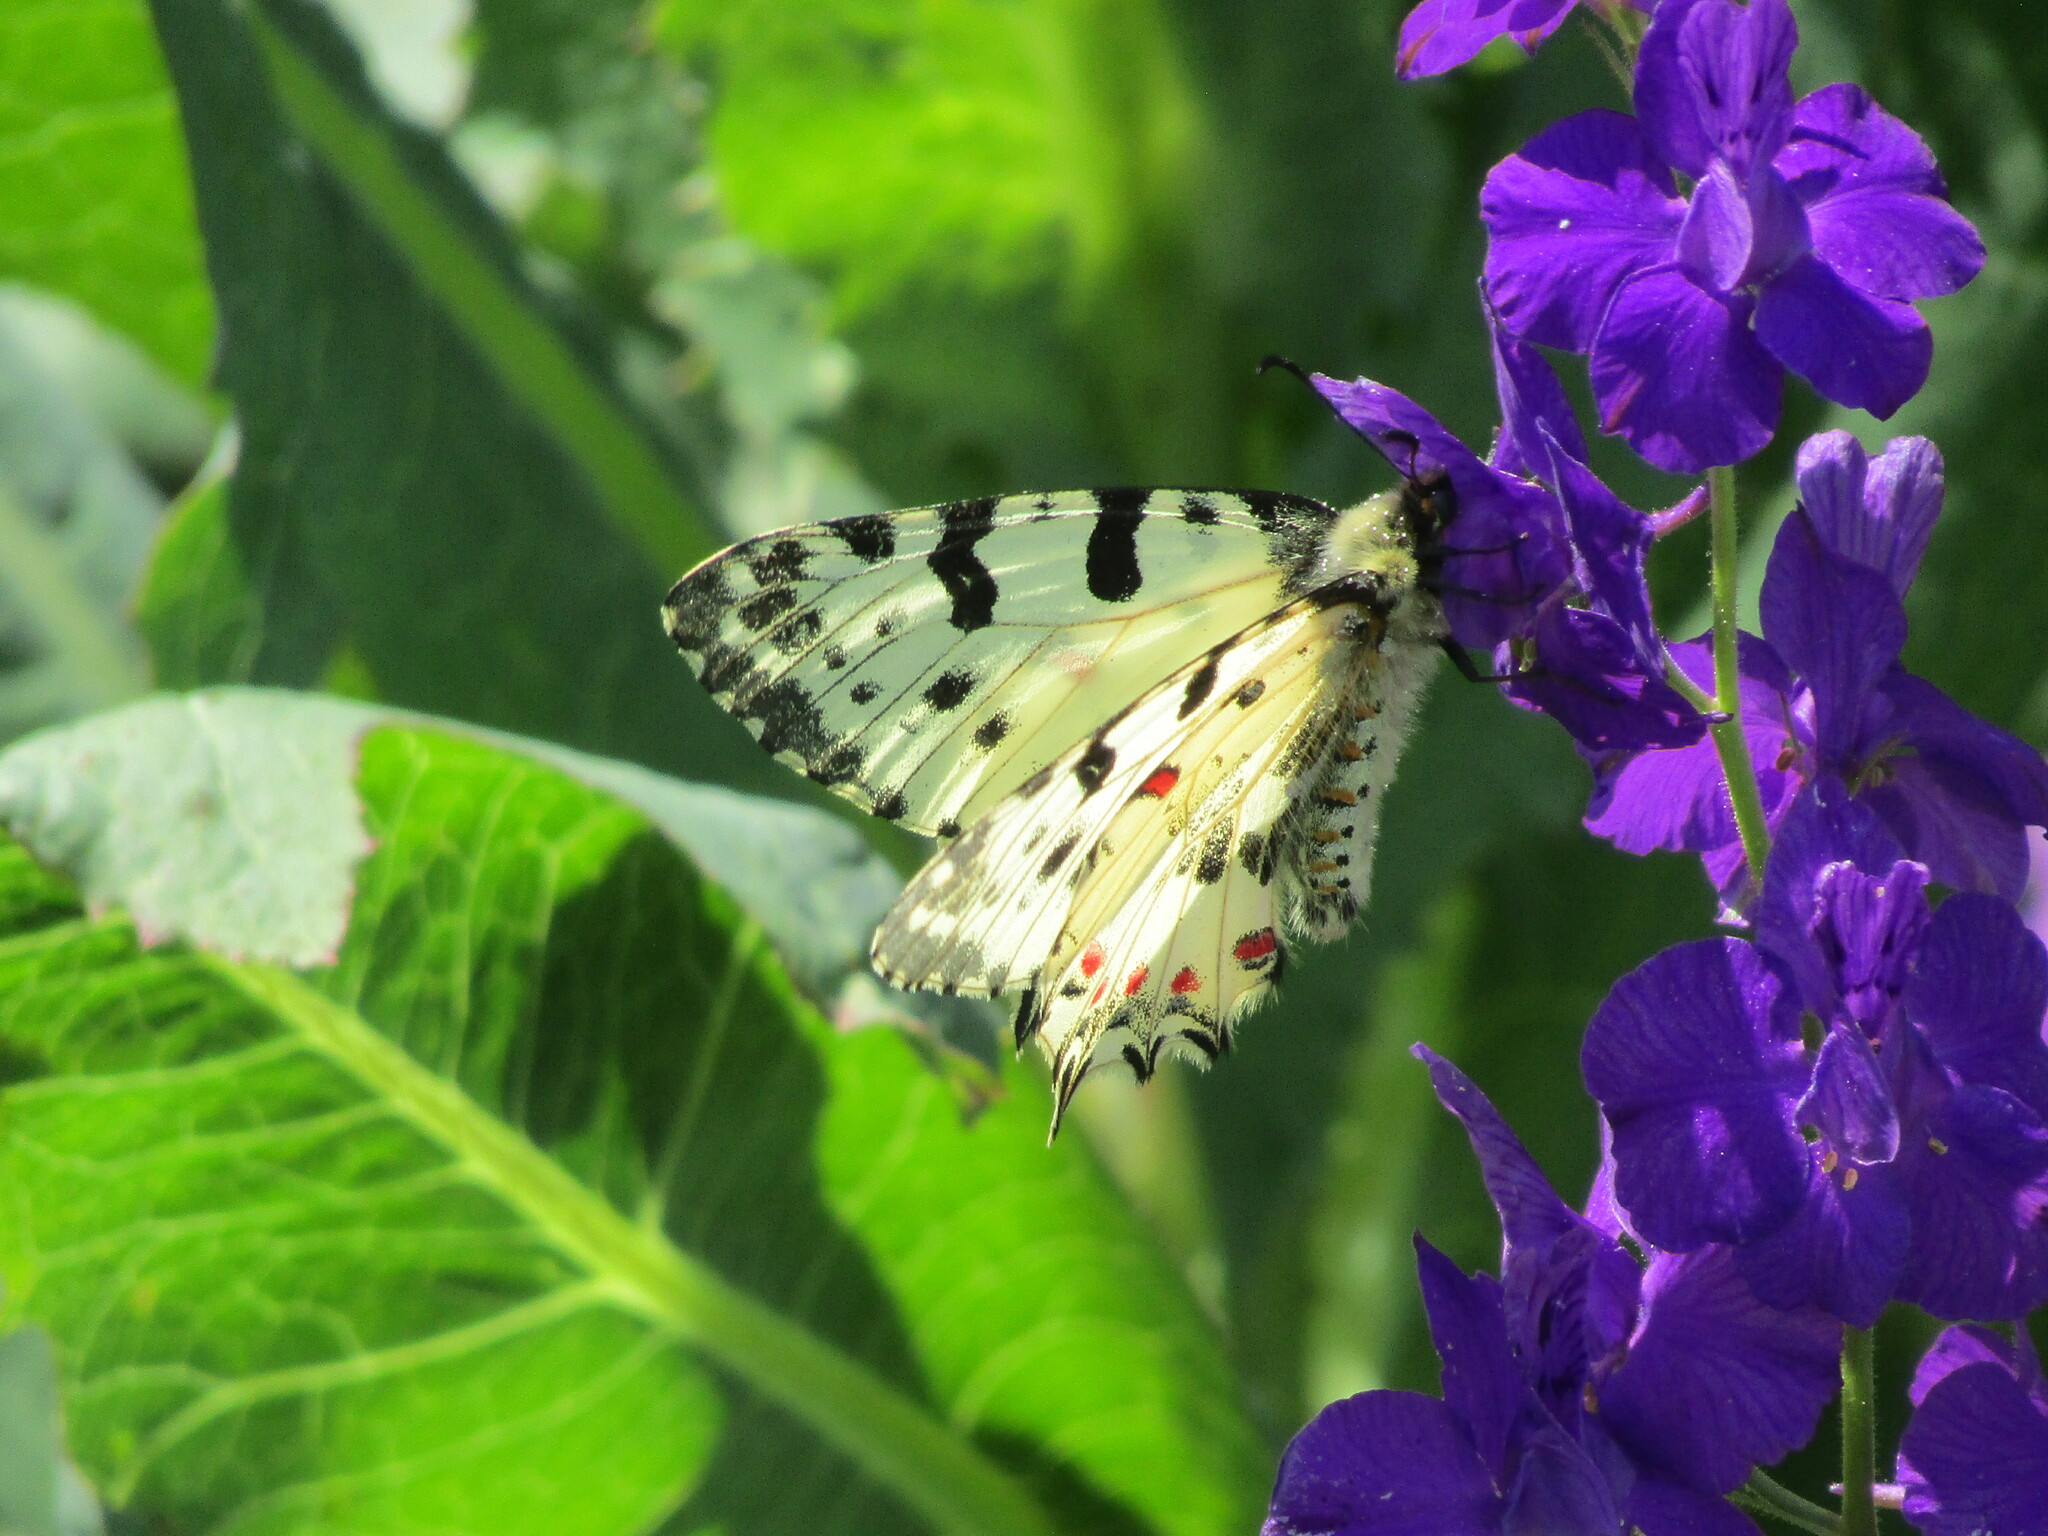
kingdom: Animalia
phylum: Arthropoda
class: Insecta
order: Lepidoptera
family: Papilionidae
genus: Zerynthia
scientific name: Zerynthia cerisy
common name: Eastern festoon
